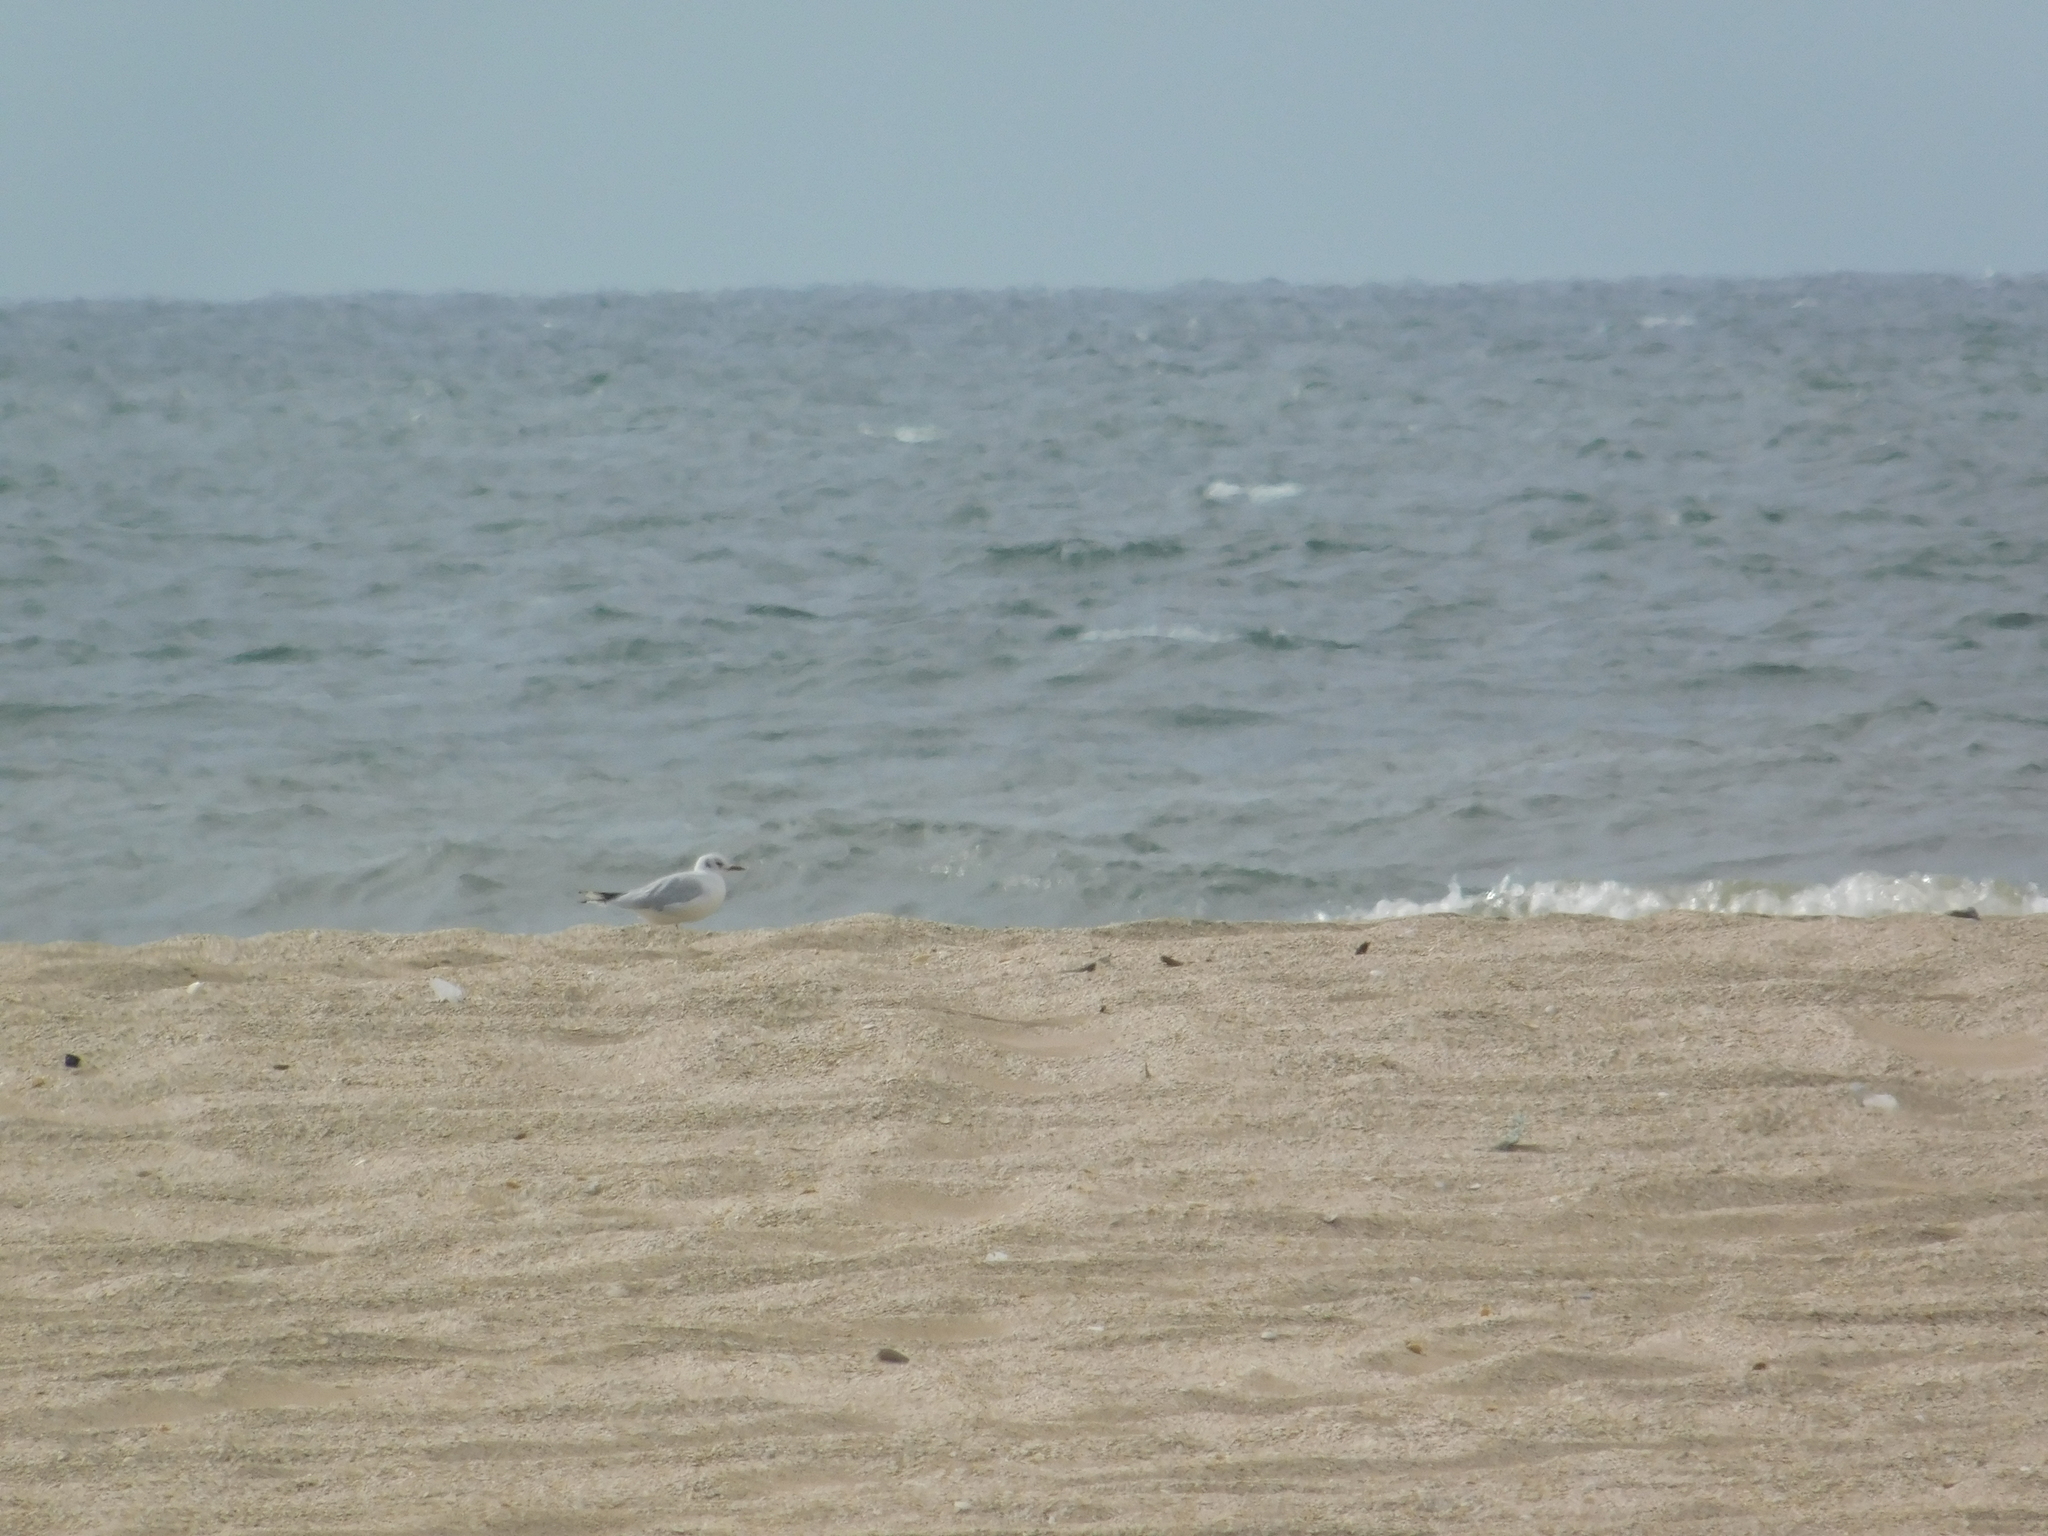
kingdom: Animalia
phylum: Chordata
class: Aves
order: Charadriiformes
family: Laridae
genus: Chroicocephalus
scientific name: Chroicocephalus maculipennis
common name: Brown-hooded gull
